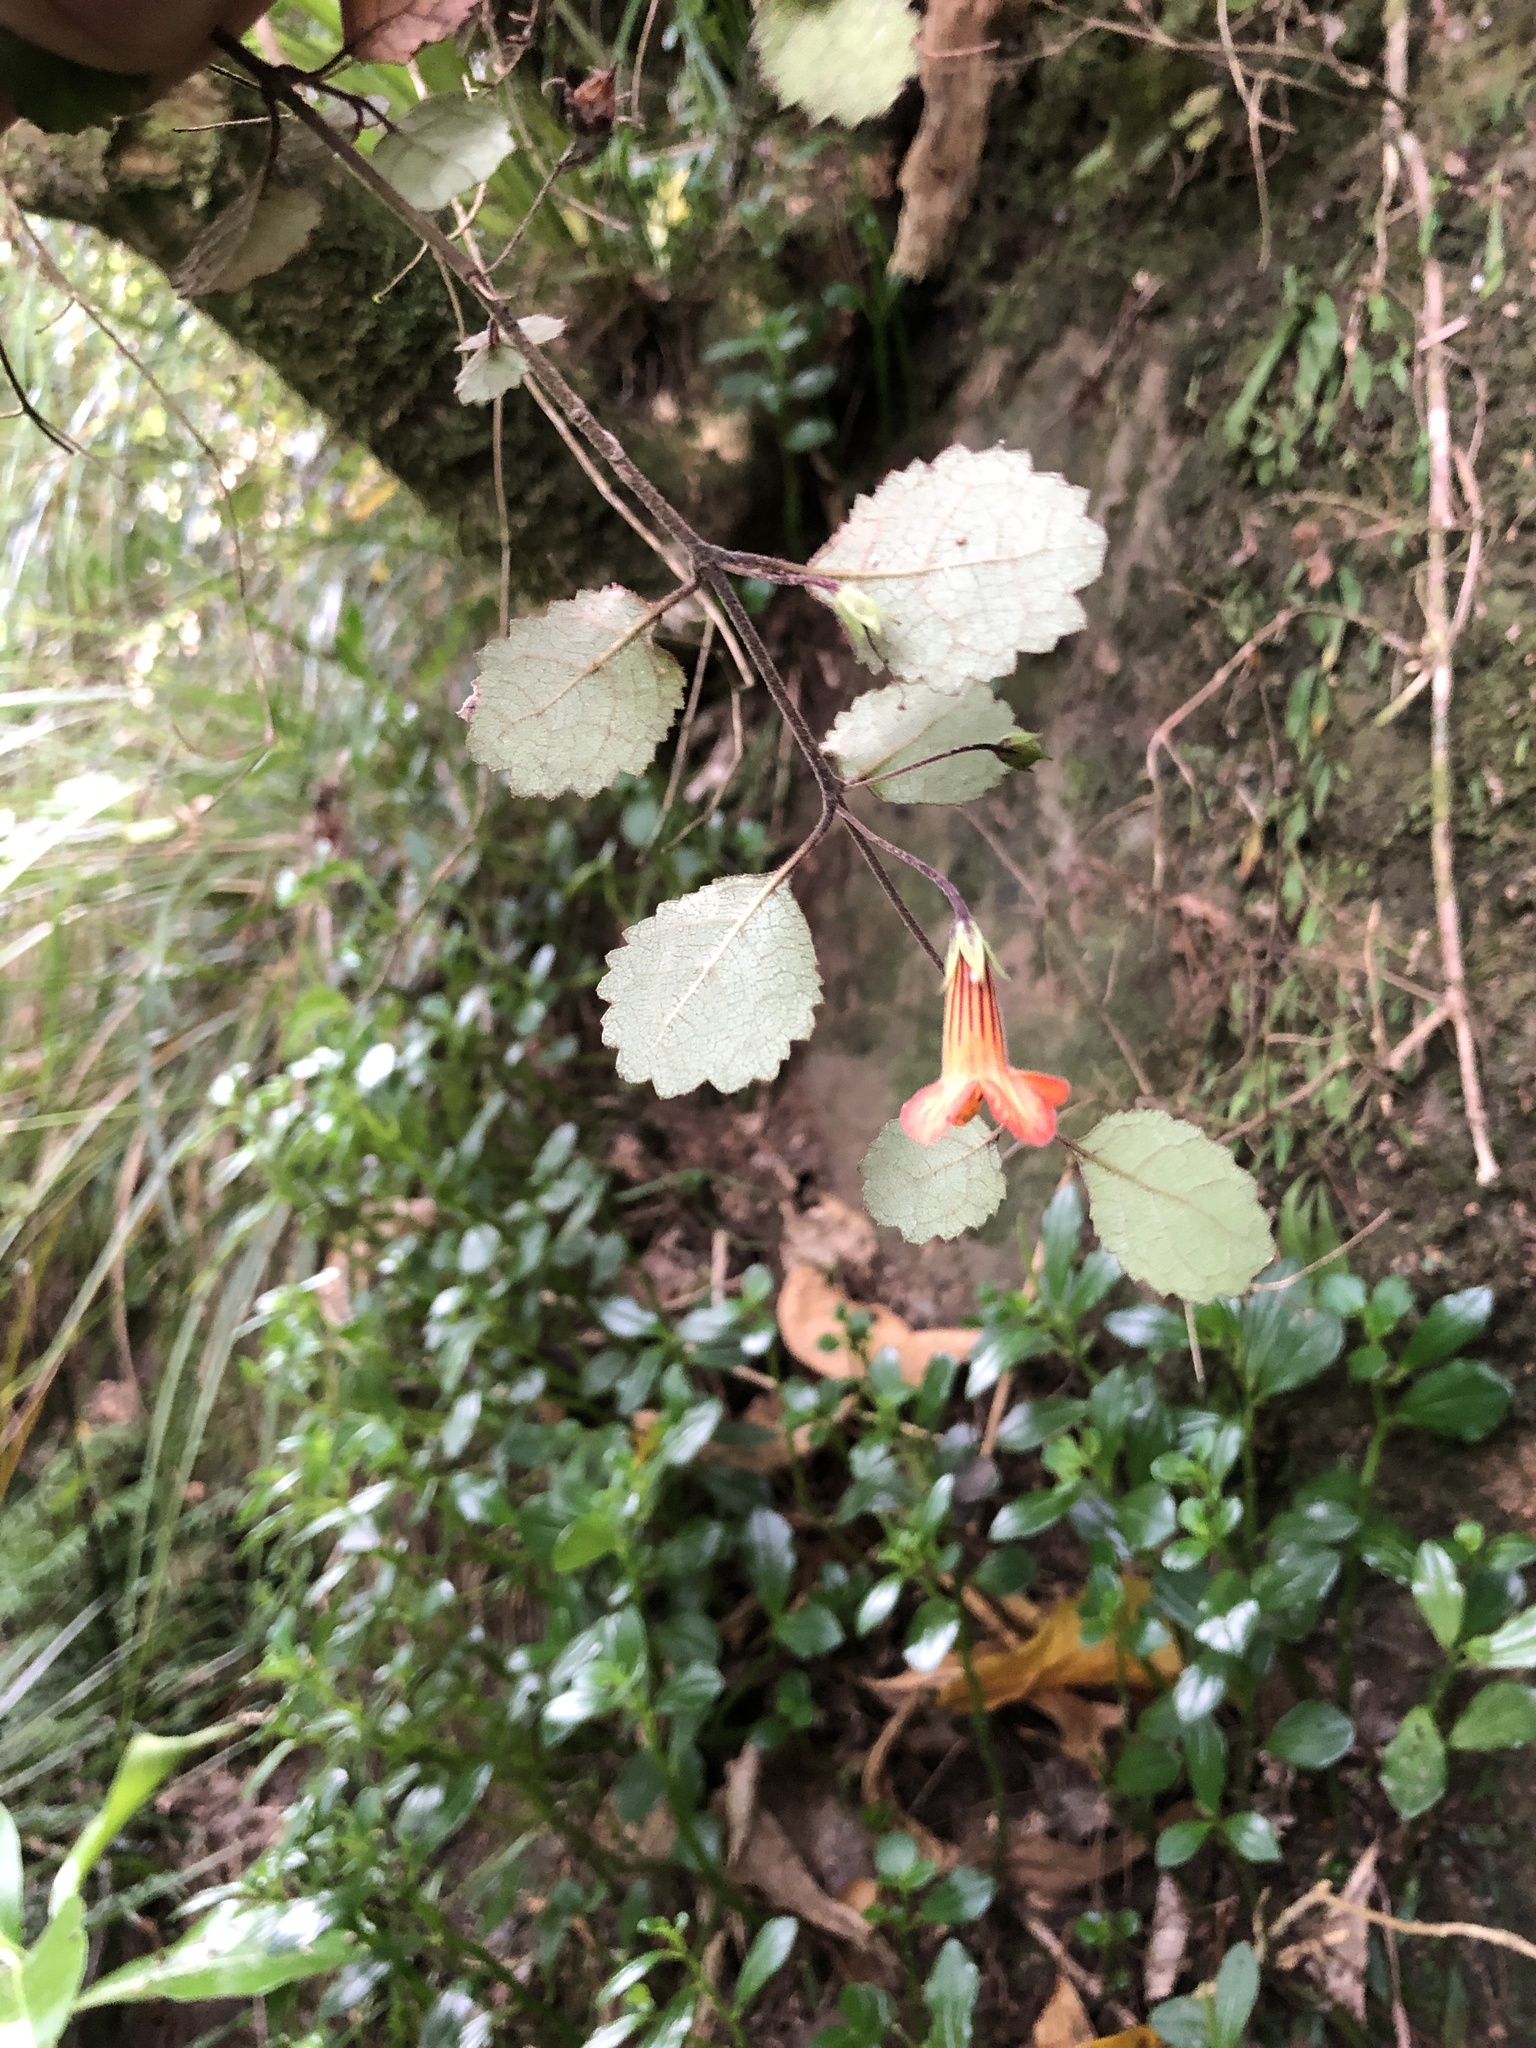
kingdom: Plantae
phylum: Tracheophyta
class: Magnoliopsida
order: Lamiales
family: Gesneriaceae
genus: Rhabdothamnus
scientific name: Rhabdothamnus solandri
